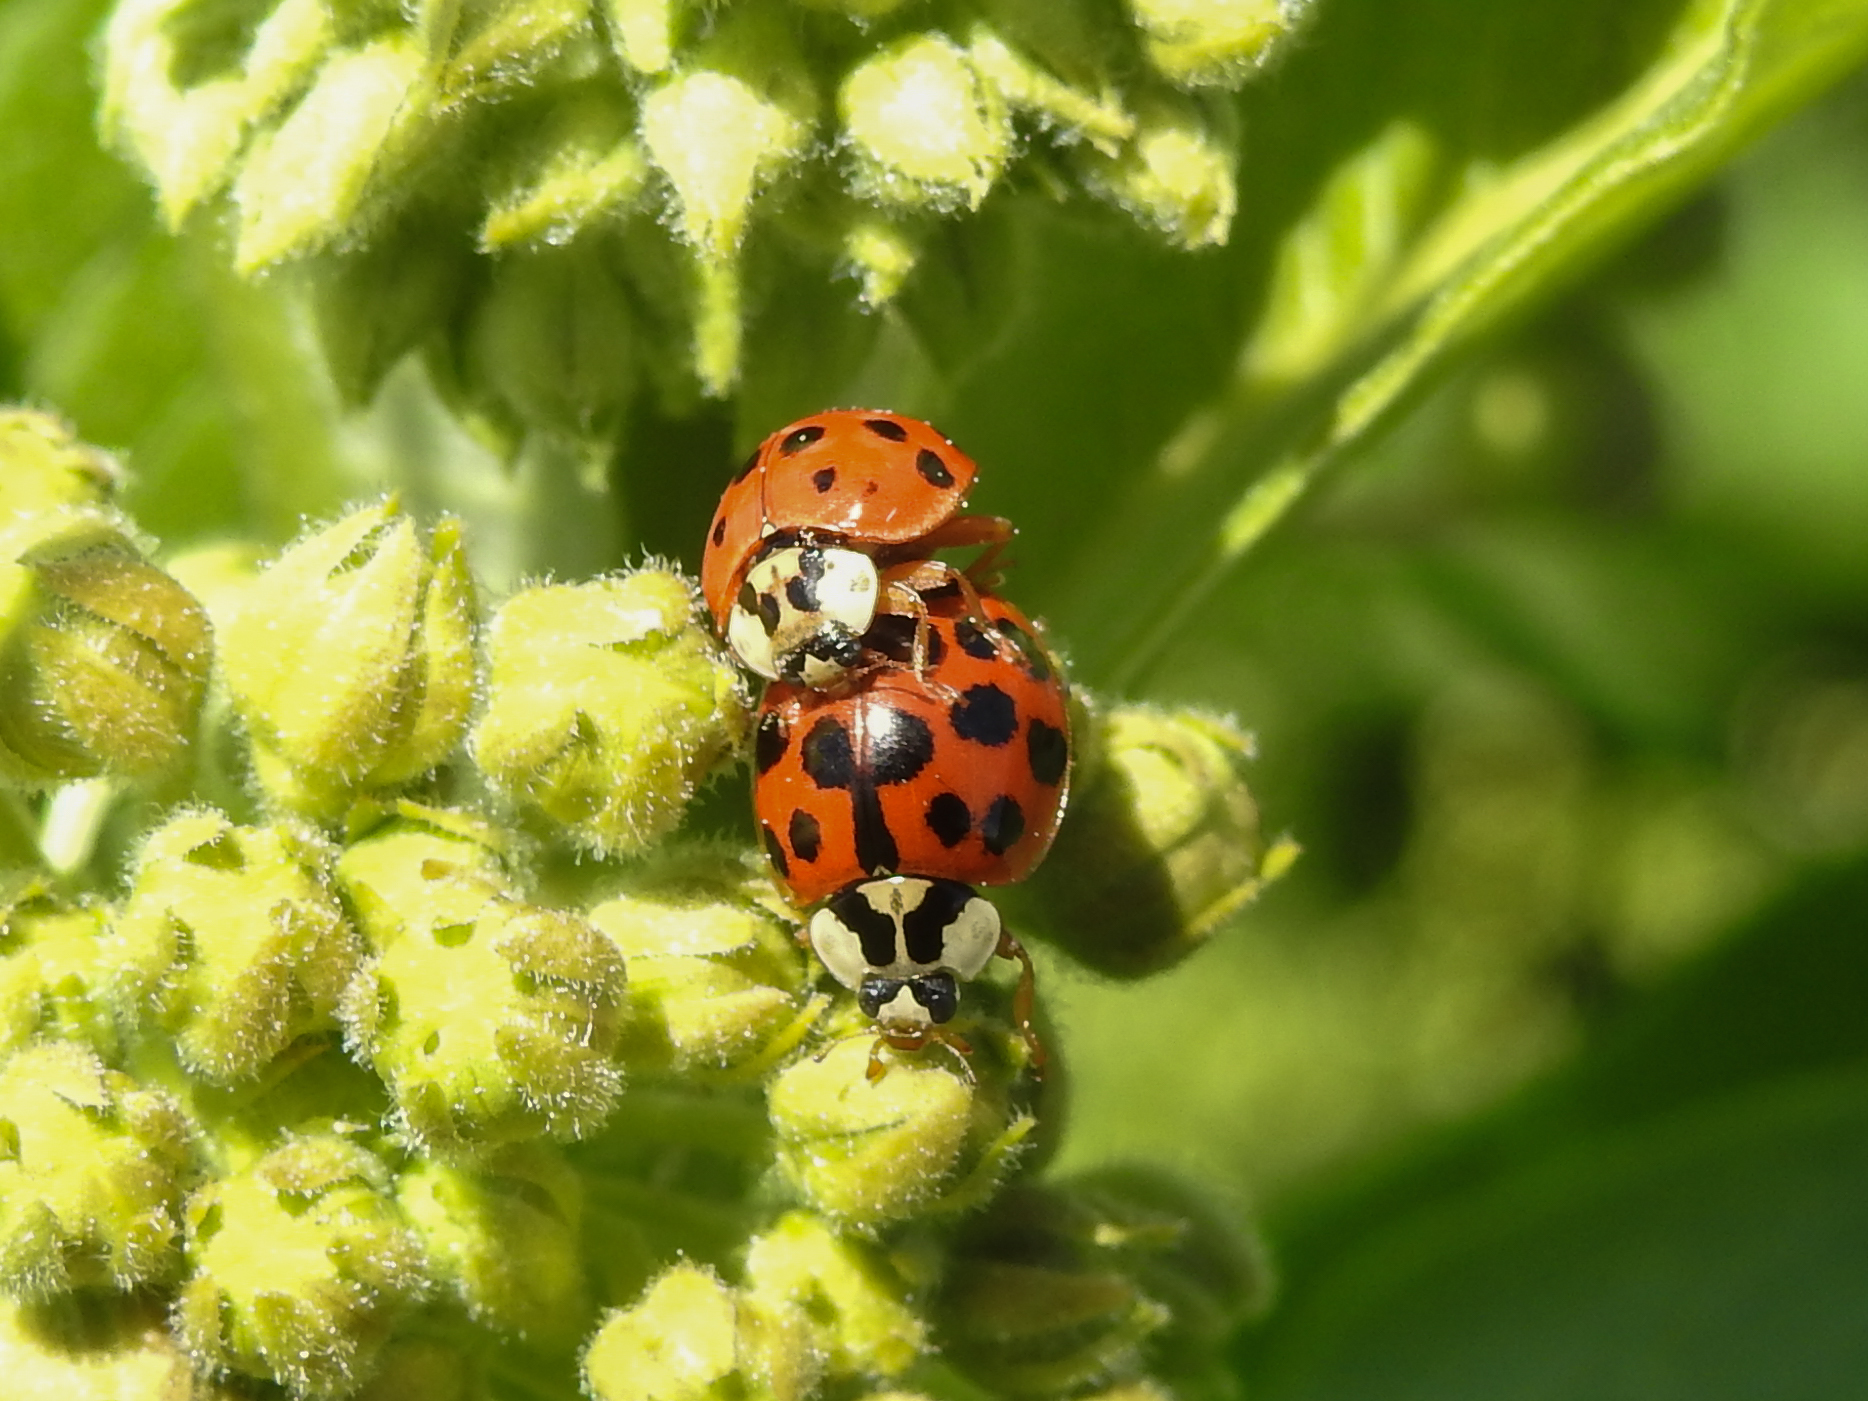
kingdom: Animalia
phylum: Arthropoda
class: Insecta
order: Coleoptera
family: Coccinellidae
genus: Harmonia
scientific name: Harmonia axyridis
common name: Harlequin ladybird
